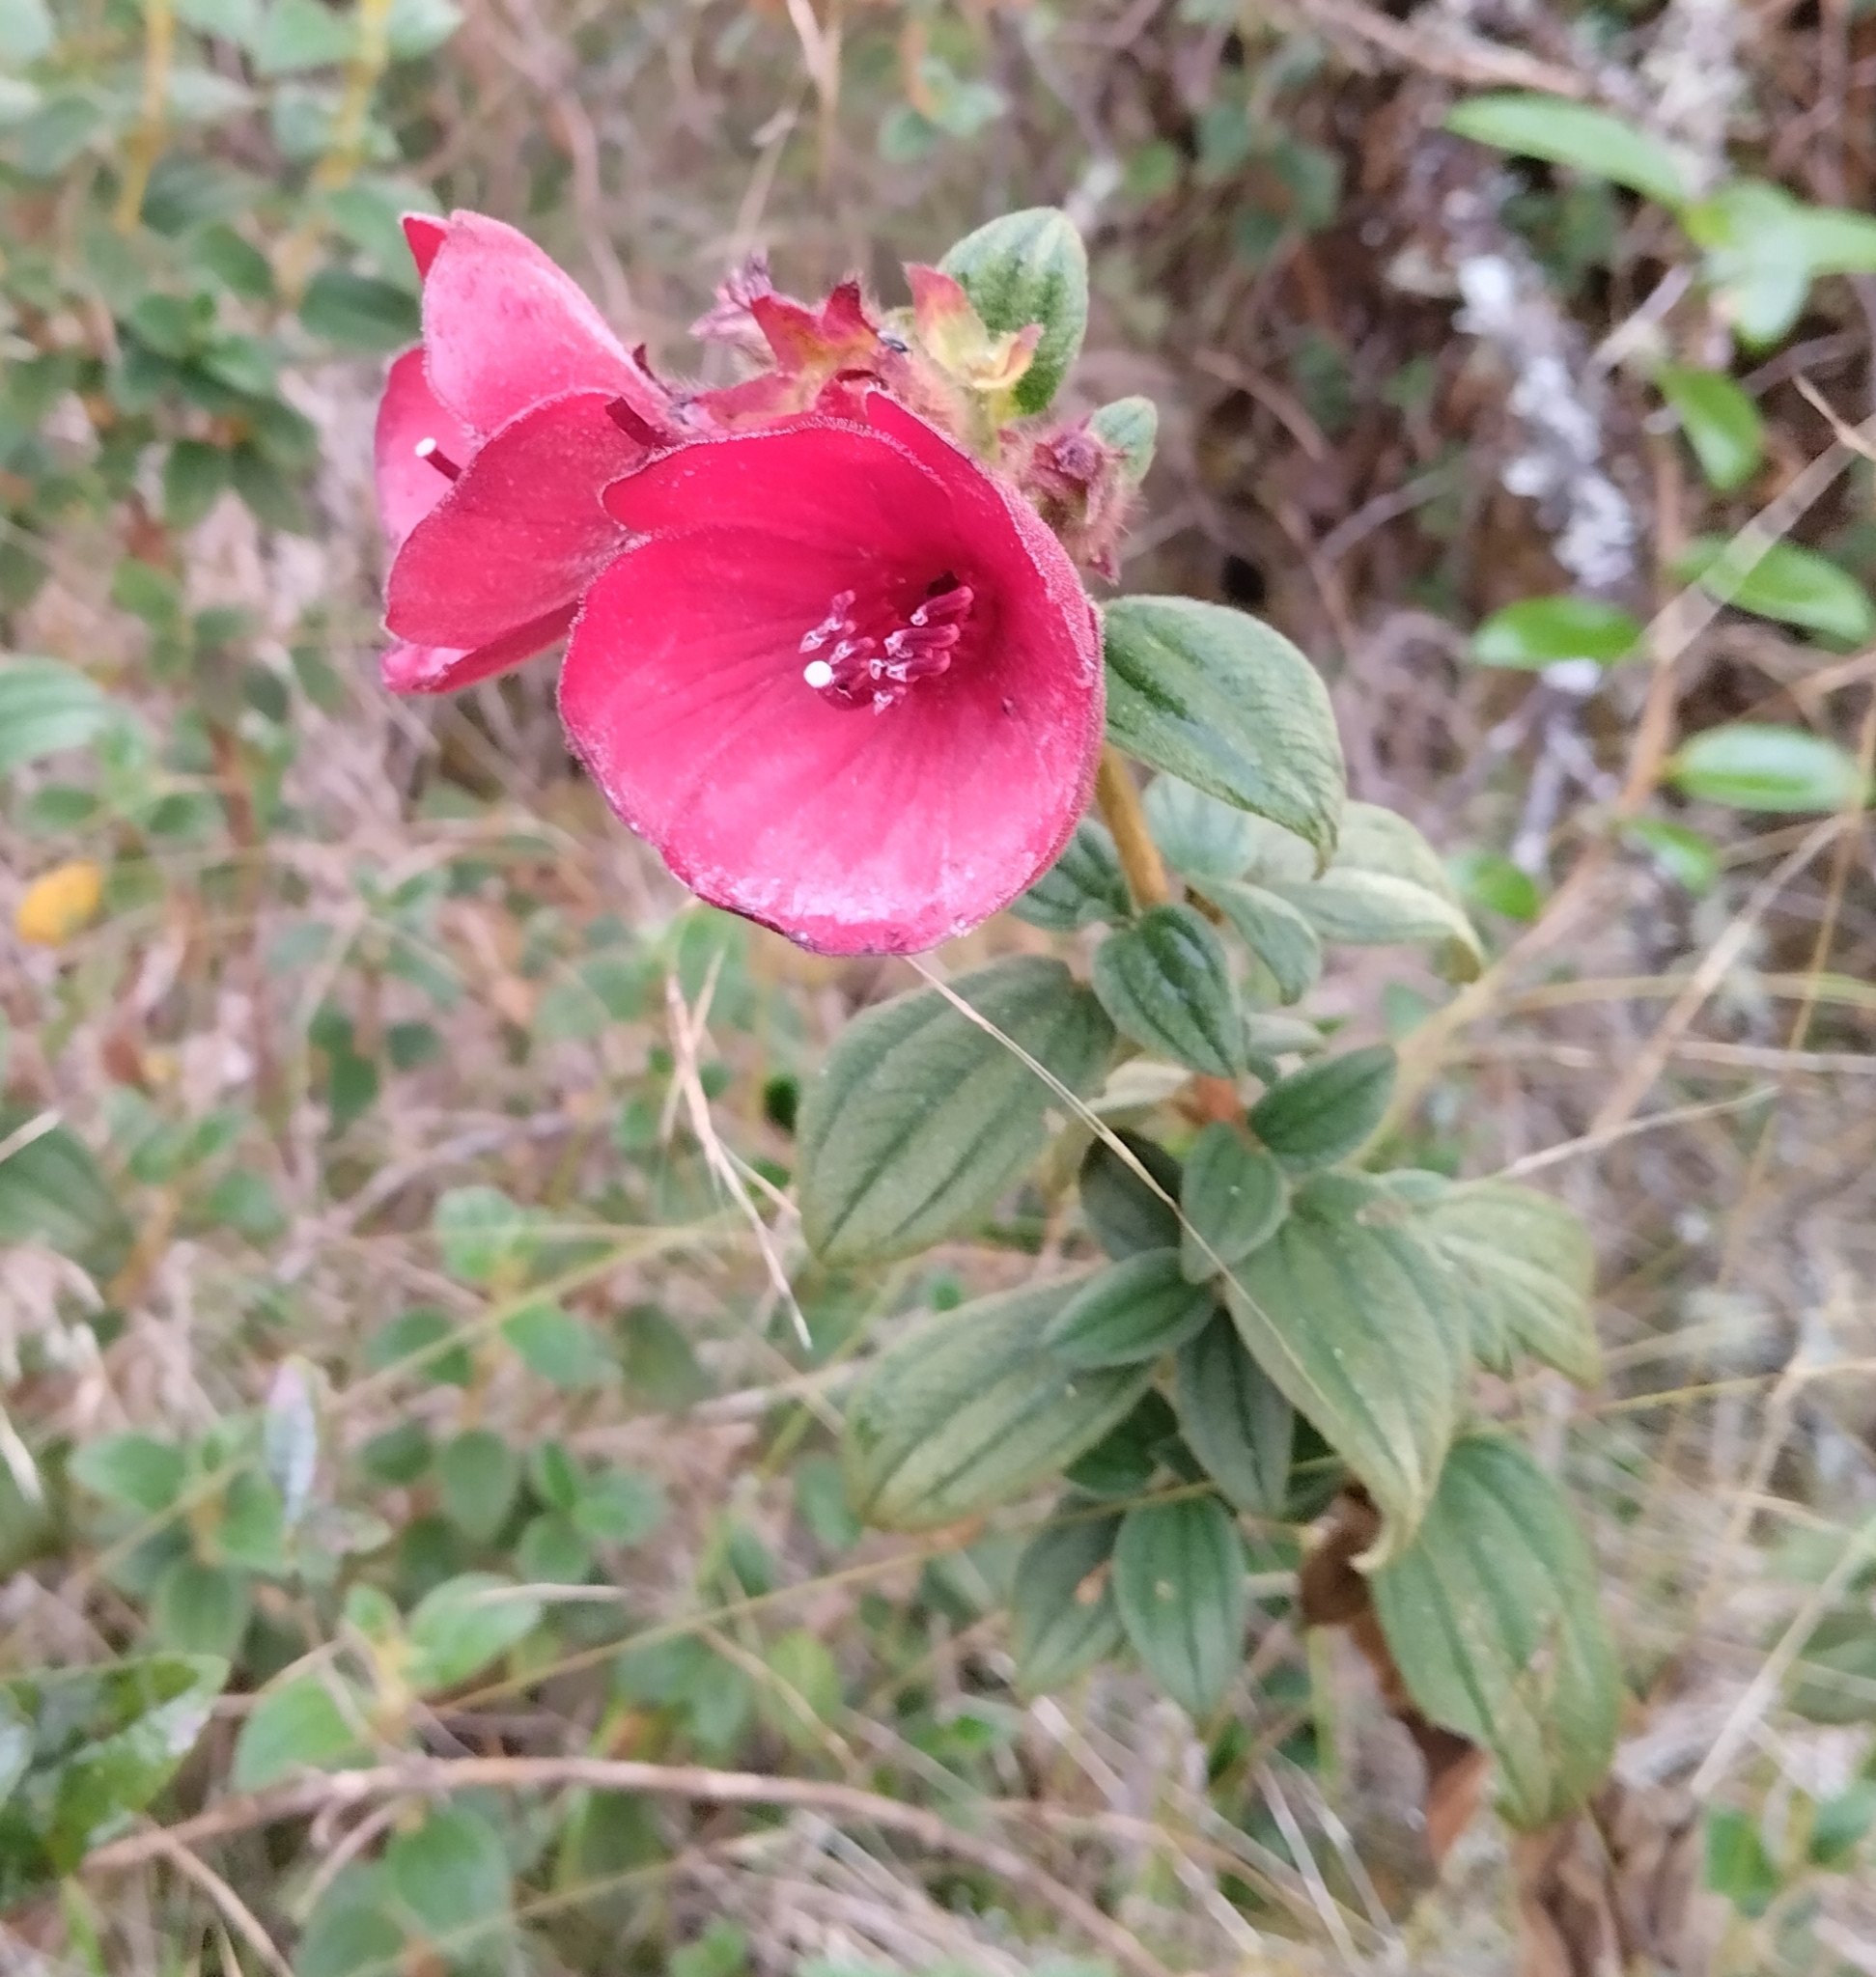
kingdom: Plantae
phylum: Tracheophyta
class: Magnoliopsida
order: Myrtales
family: Melastomataceae
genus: Chaetogastra
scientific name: Chaetogastra grossa
